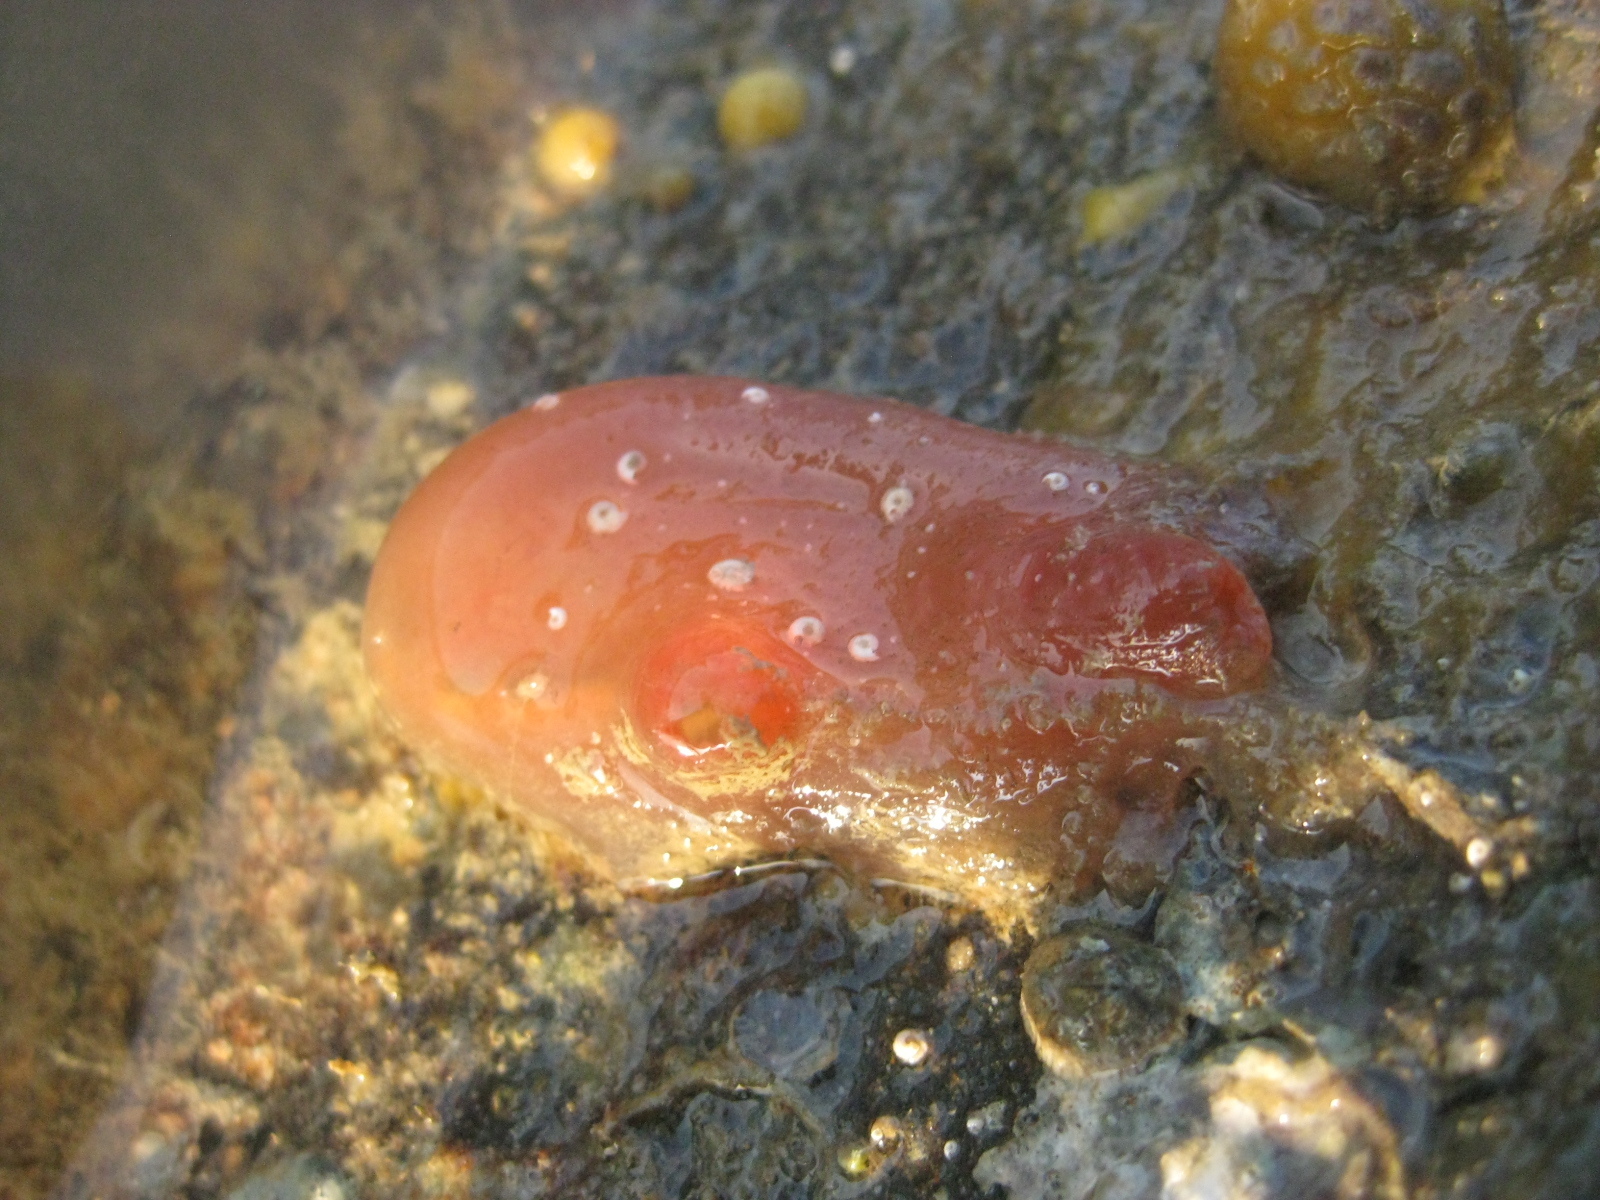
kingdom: Animalia
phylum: Chordata
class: Ascidiacea
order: Phlebobranchia
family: Corellidae
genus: Corella
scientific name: Corella eumyota
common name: Orange-tipped sea squirt
